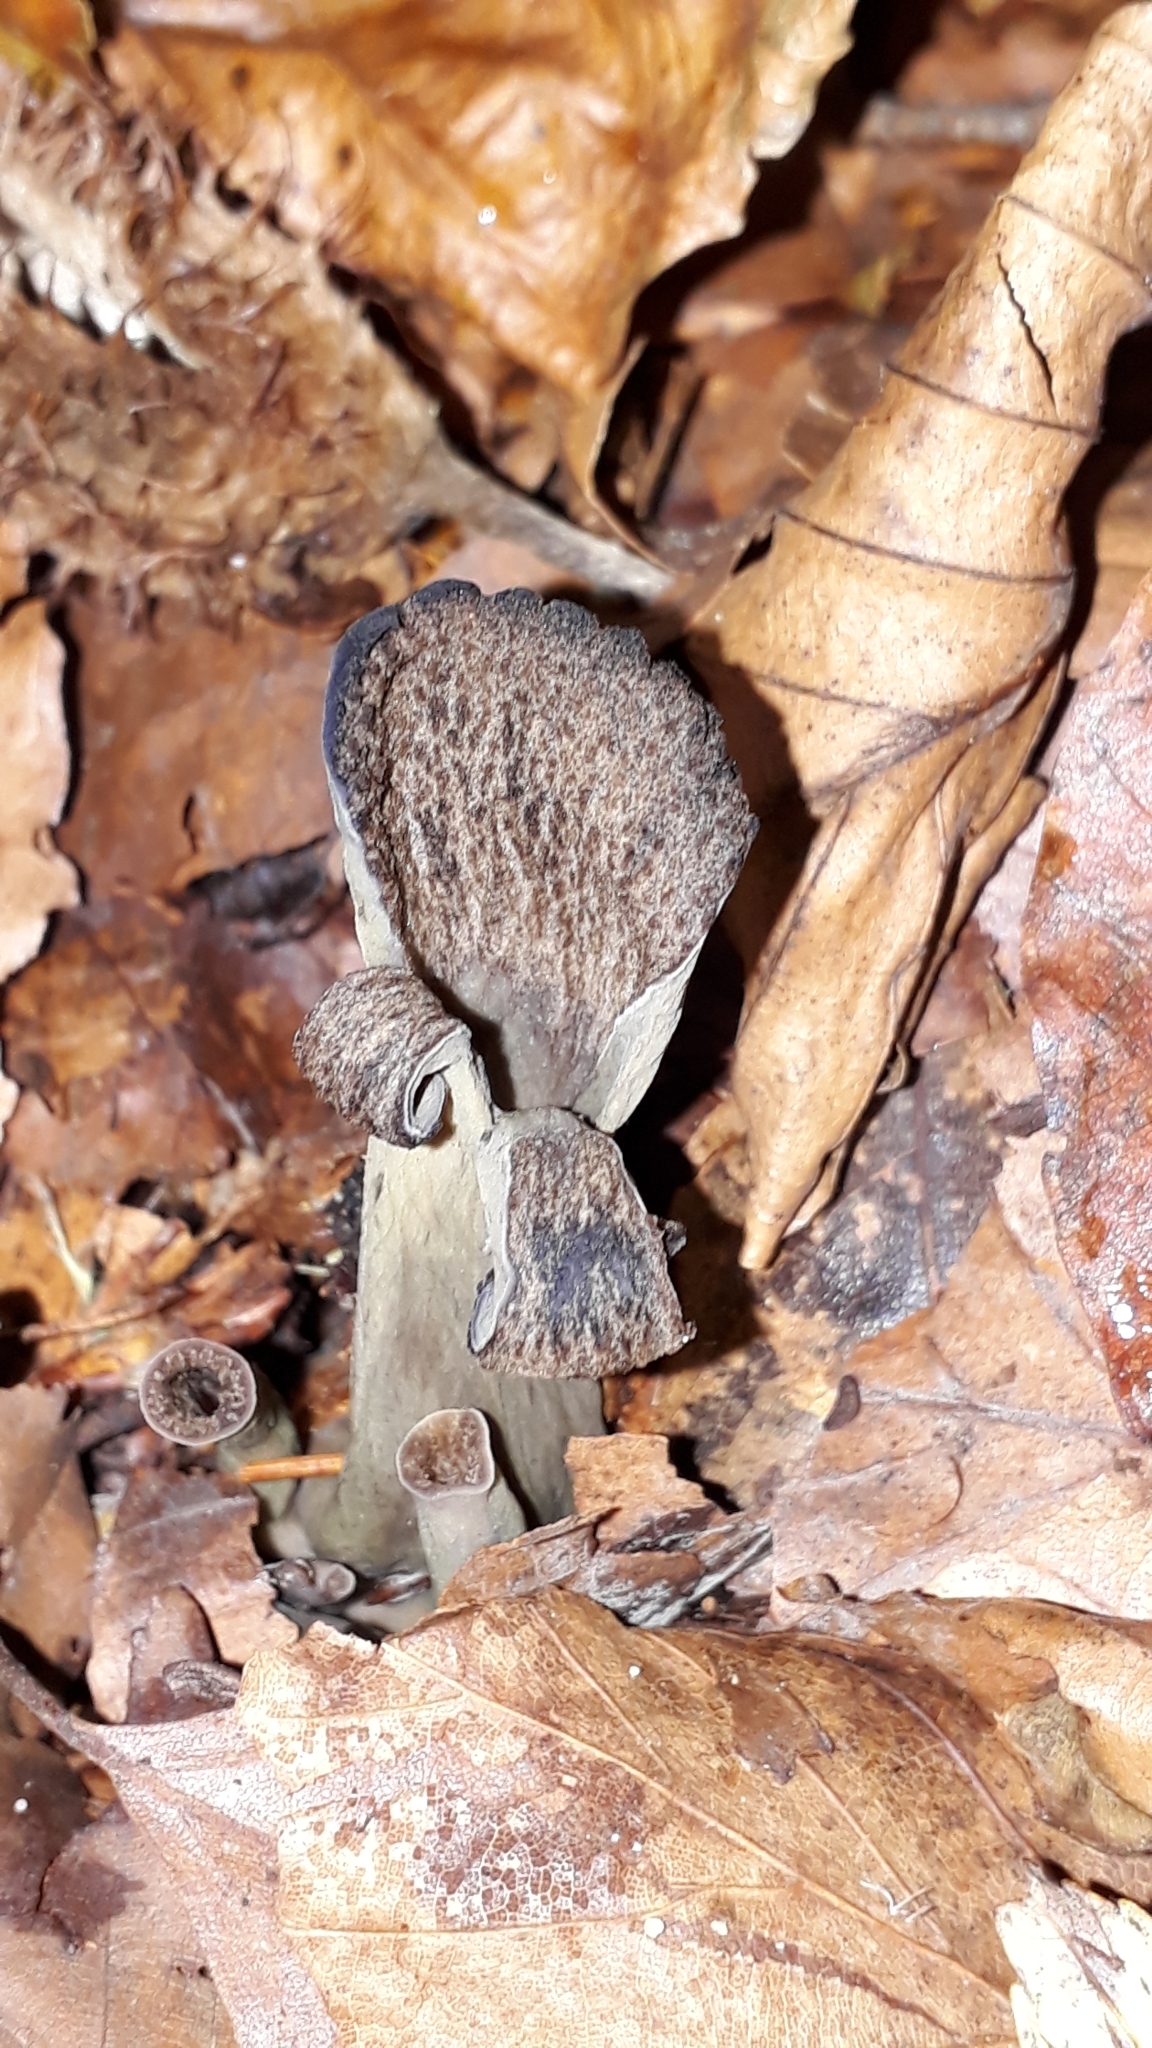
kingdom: Fungi
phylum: Basidiomycota
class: Agaricomycetes
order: Cantharellales
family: Hydnaceae
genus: Craterellus
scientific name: Craterellus cornucopioides
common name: Horn of plenty
